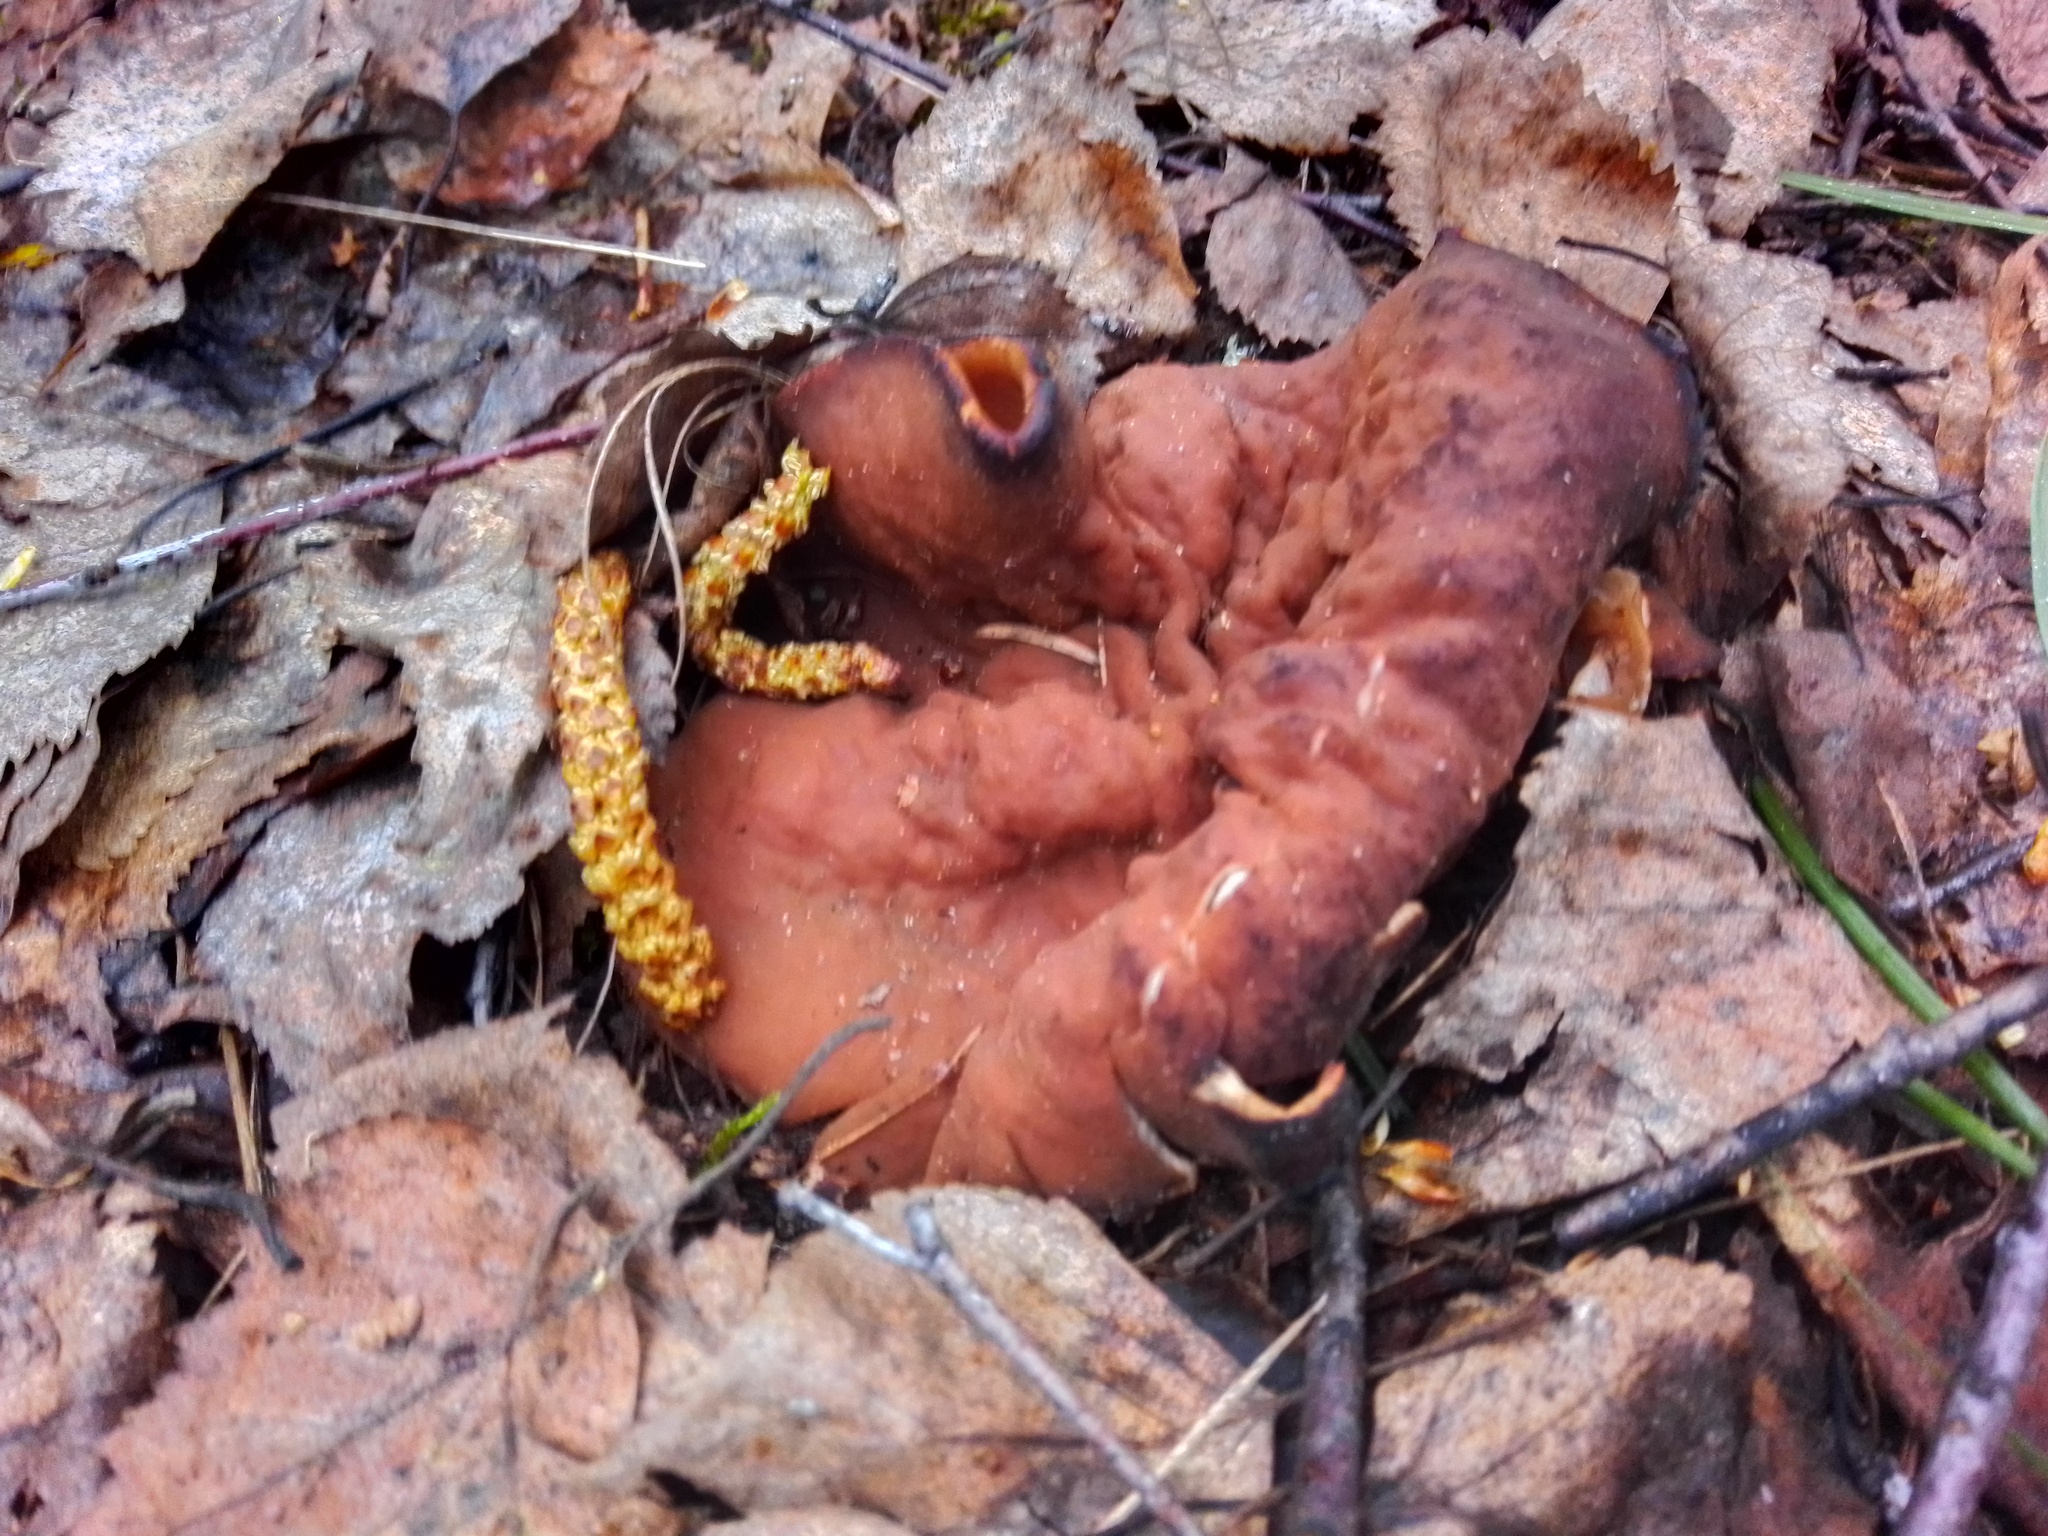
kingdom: Fungi
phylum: Ascomycota
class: Pezizomycetes
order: Pezizales
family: Discinaceae
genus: Discina
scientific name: Discina
